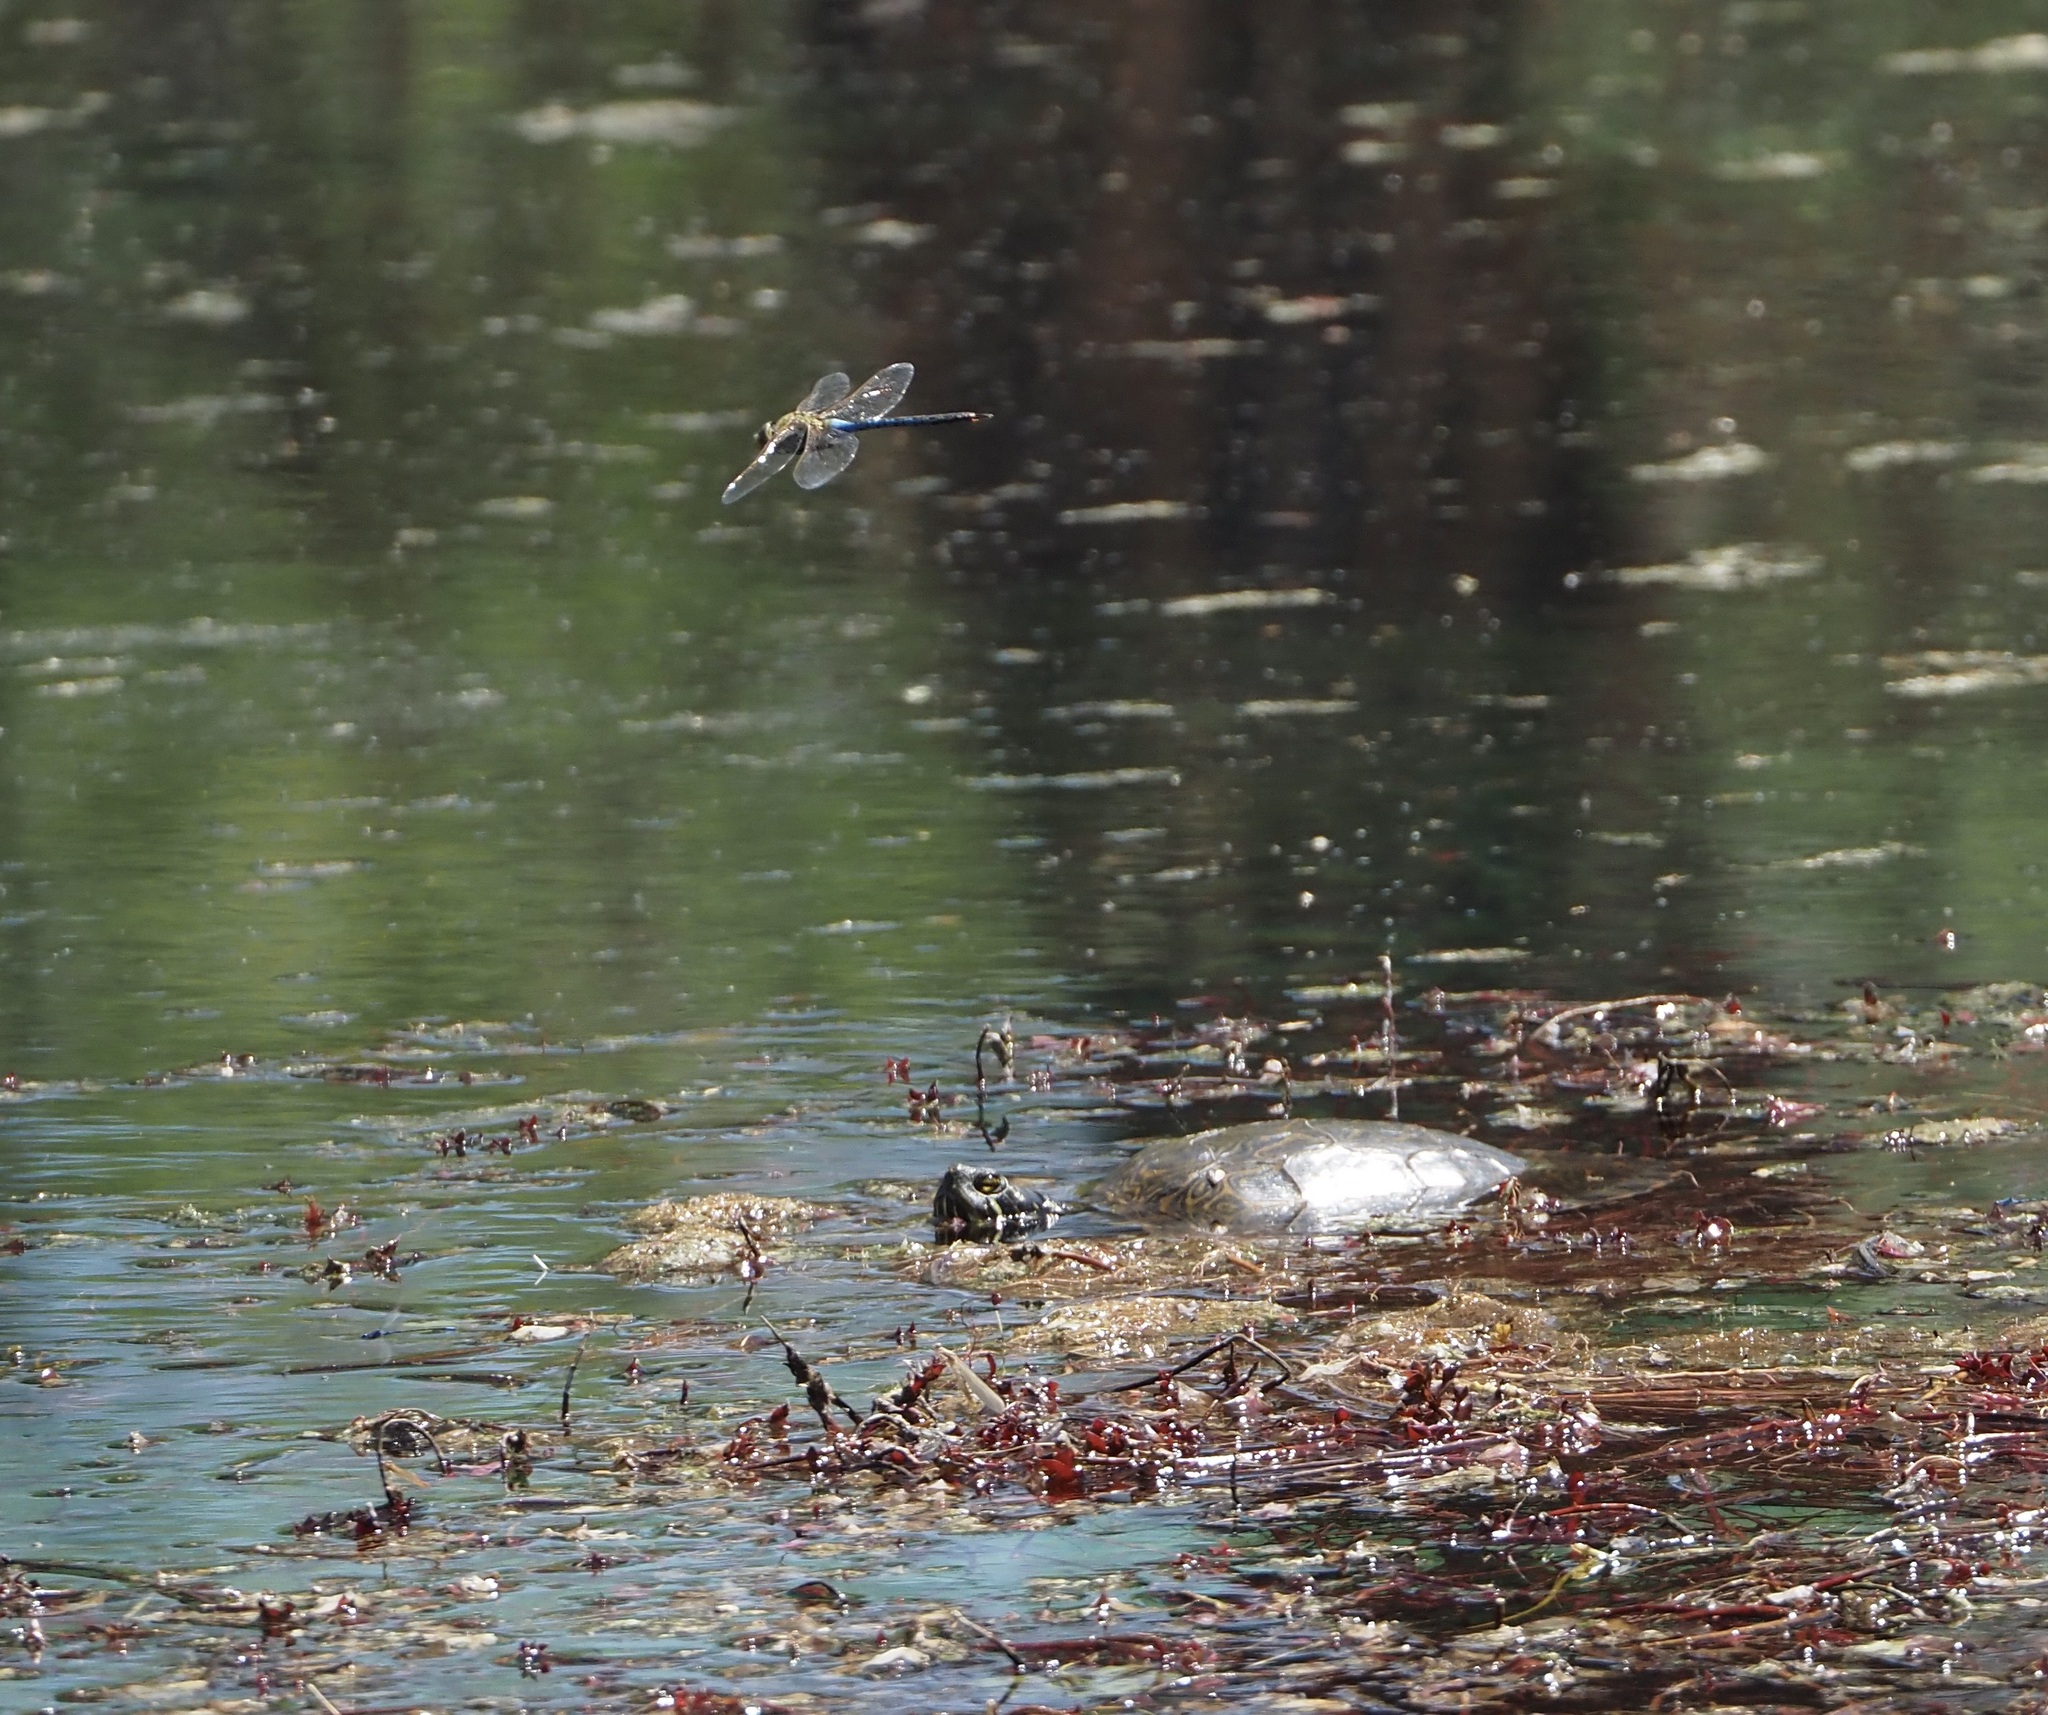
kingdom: Animalia
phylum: Arthropoda
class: Insecta
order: Odonata
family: Aeshnidae
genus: Anax
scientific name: Anax junius
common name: Common green darner
